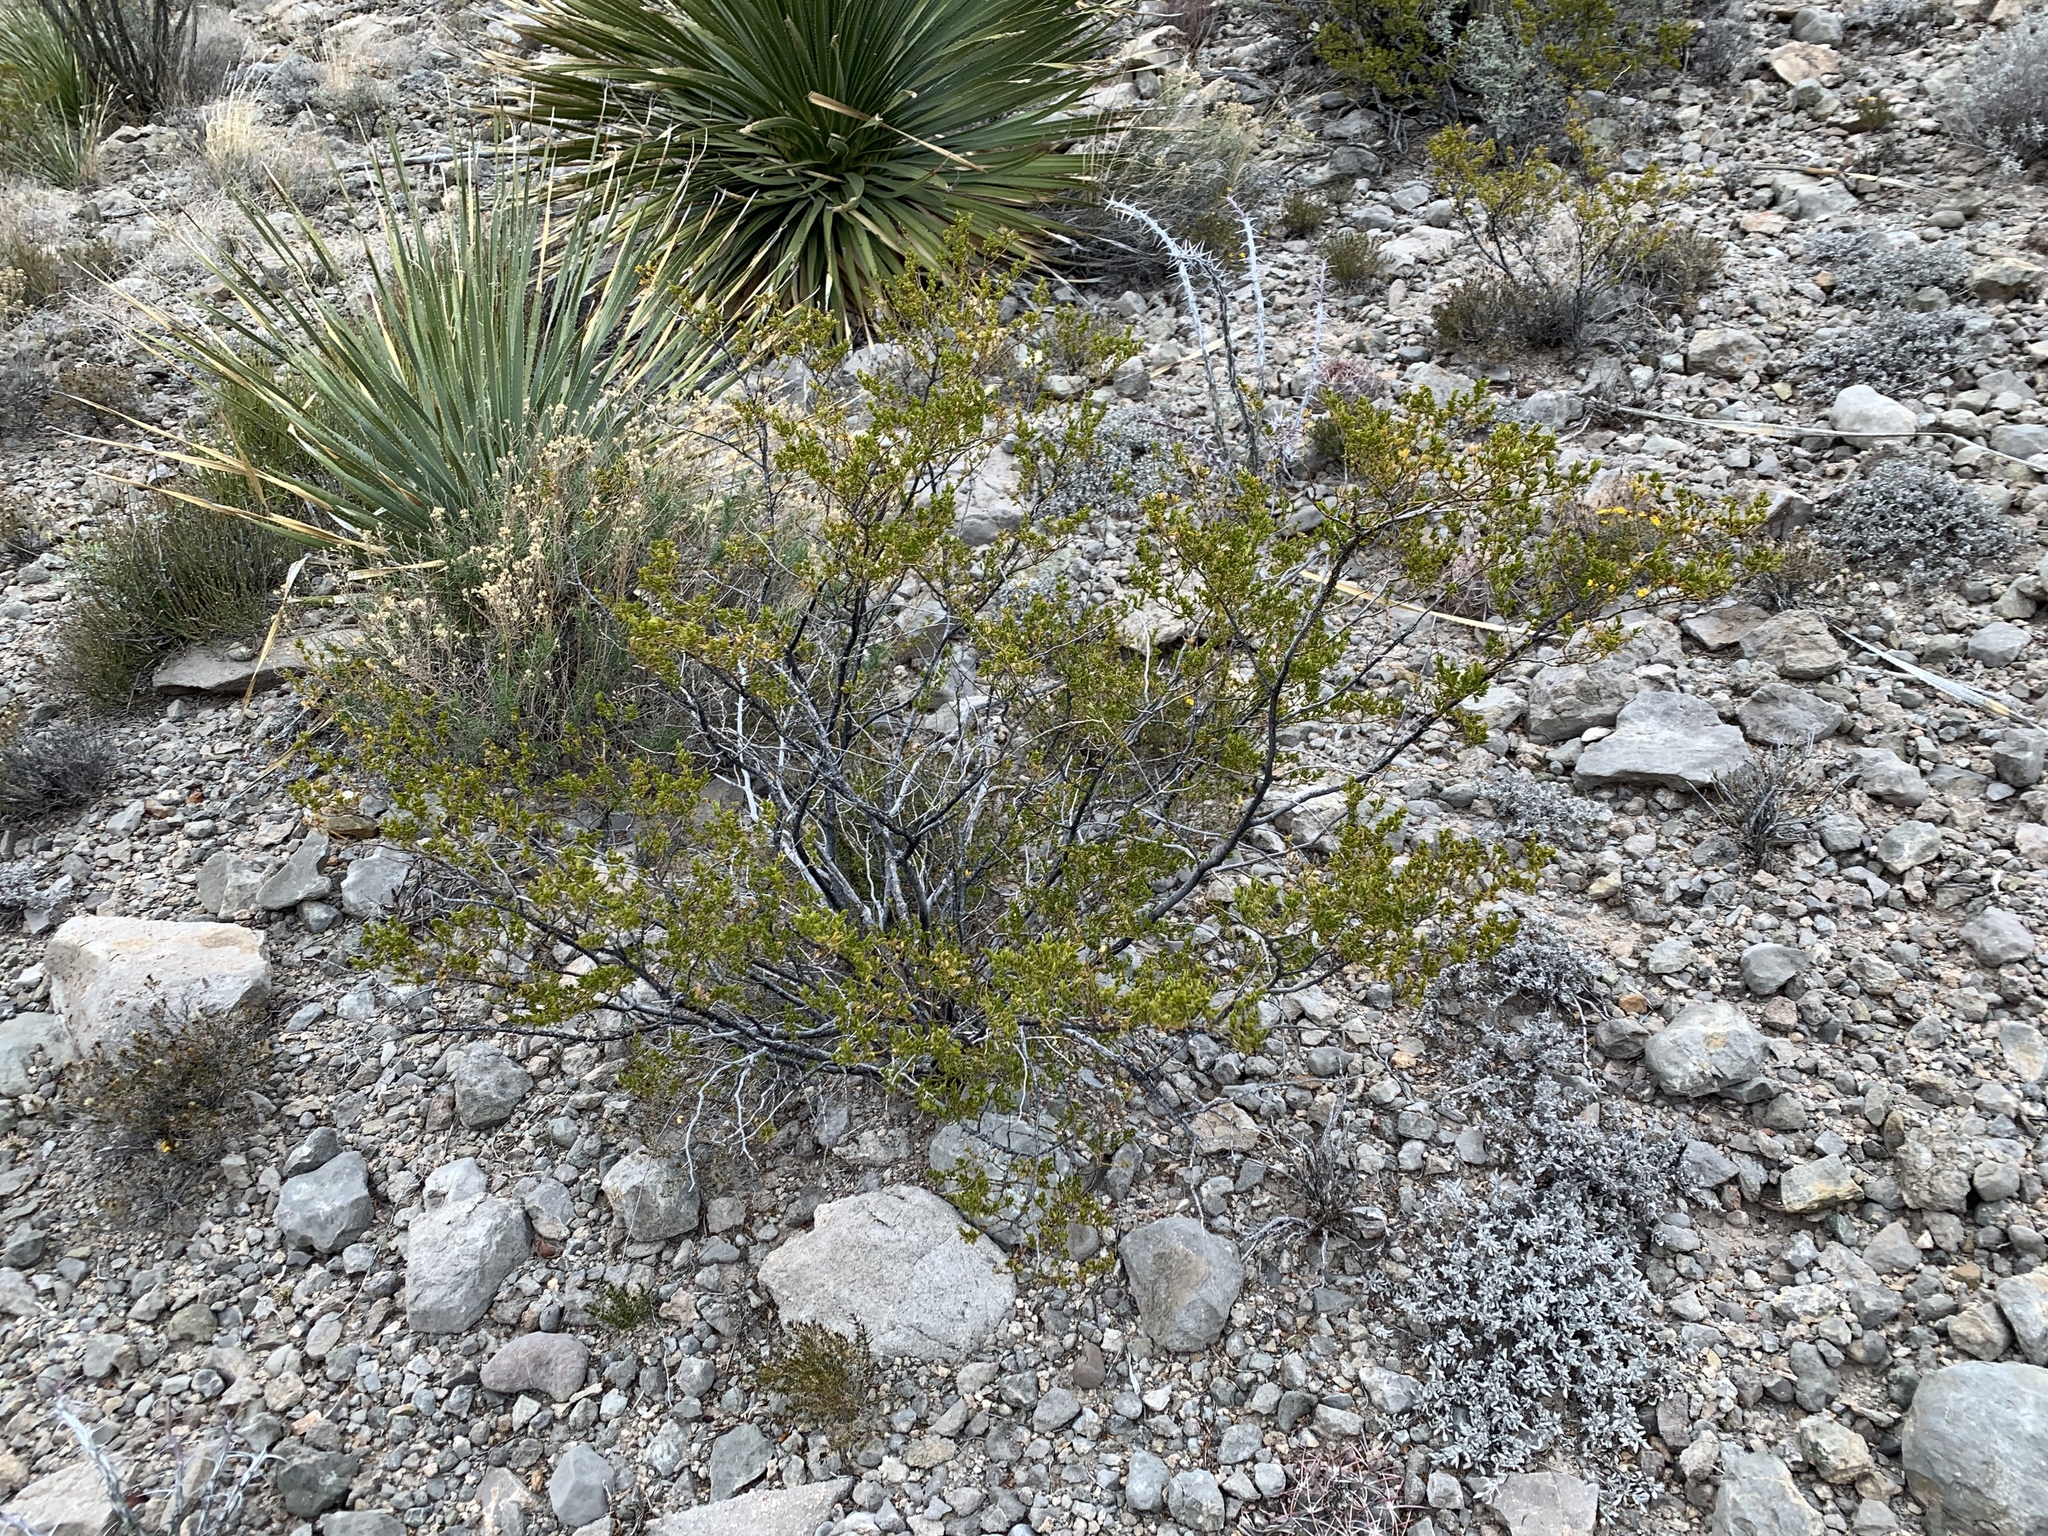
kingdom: Plantae
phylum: Tracheophyta
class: Magnoliopsida
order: Zygophyllales
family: Zygophyllaceae
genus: Larrea
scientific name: Larrea tridentata
